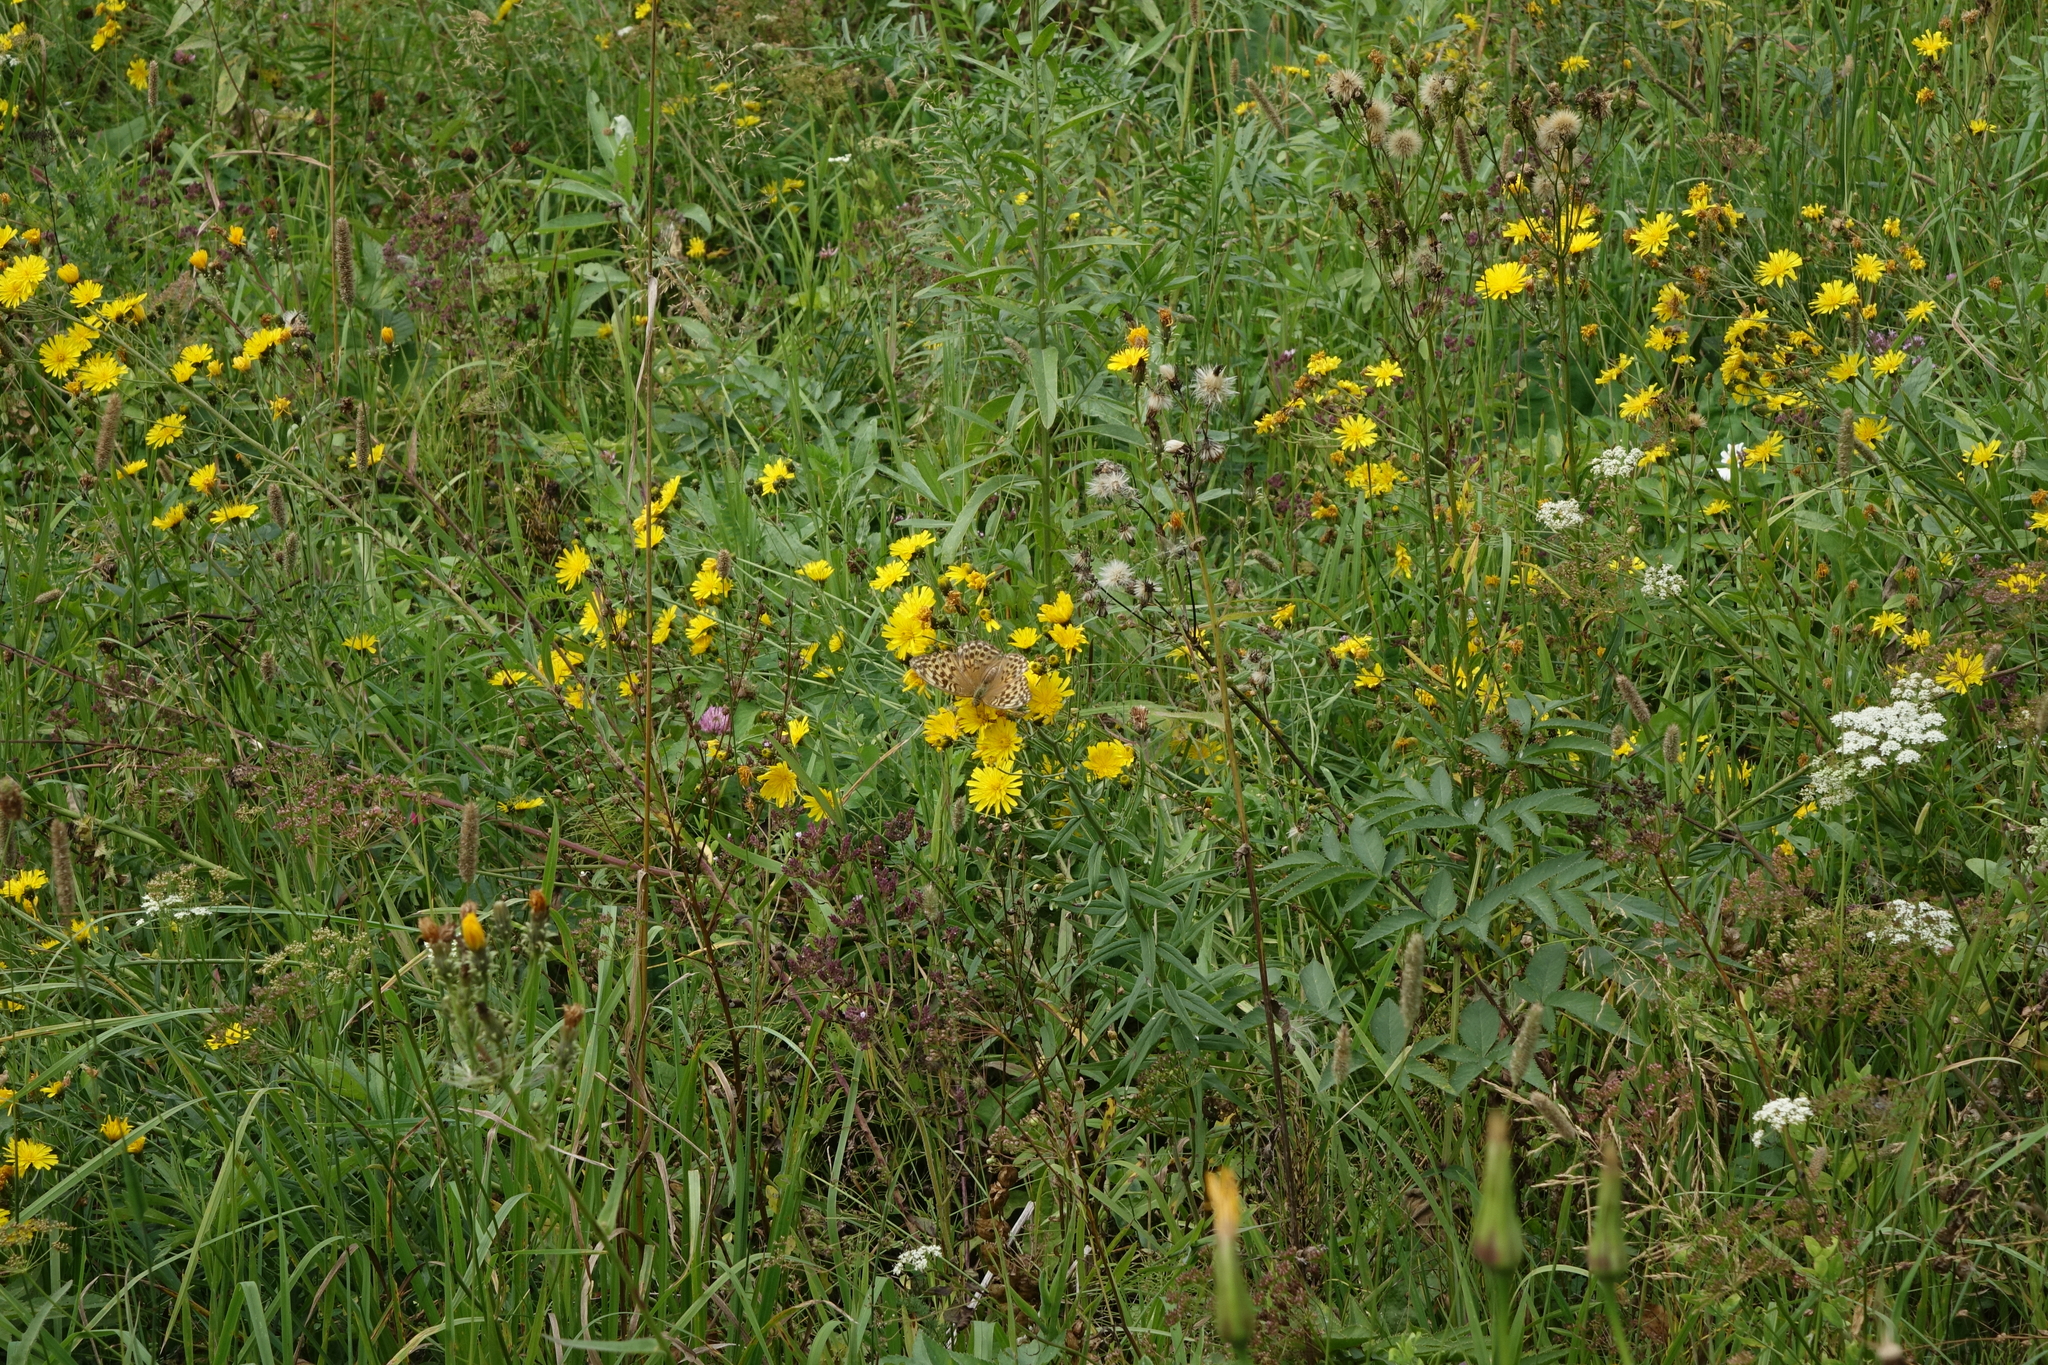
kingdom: Plantae
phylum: Tracheophyta
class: Magnoliopsida
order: Asterales
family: Asteraceae
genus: Hieracium
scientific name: Hieracium umbellatum
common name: Northern hawkweed
